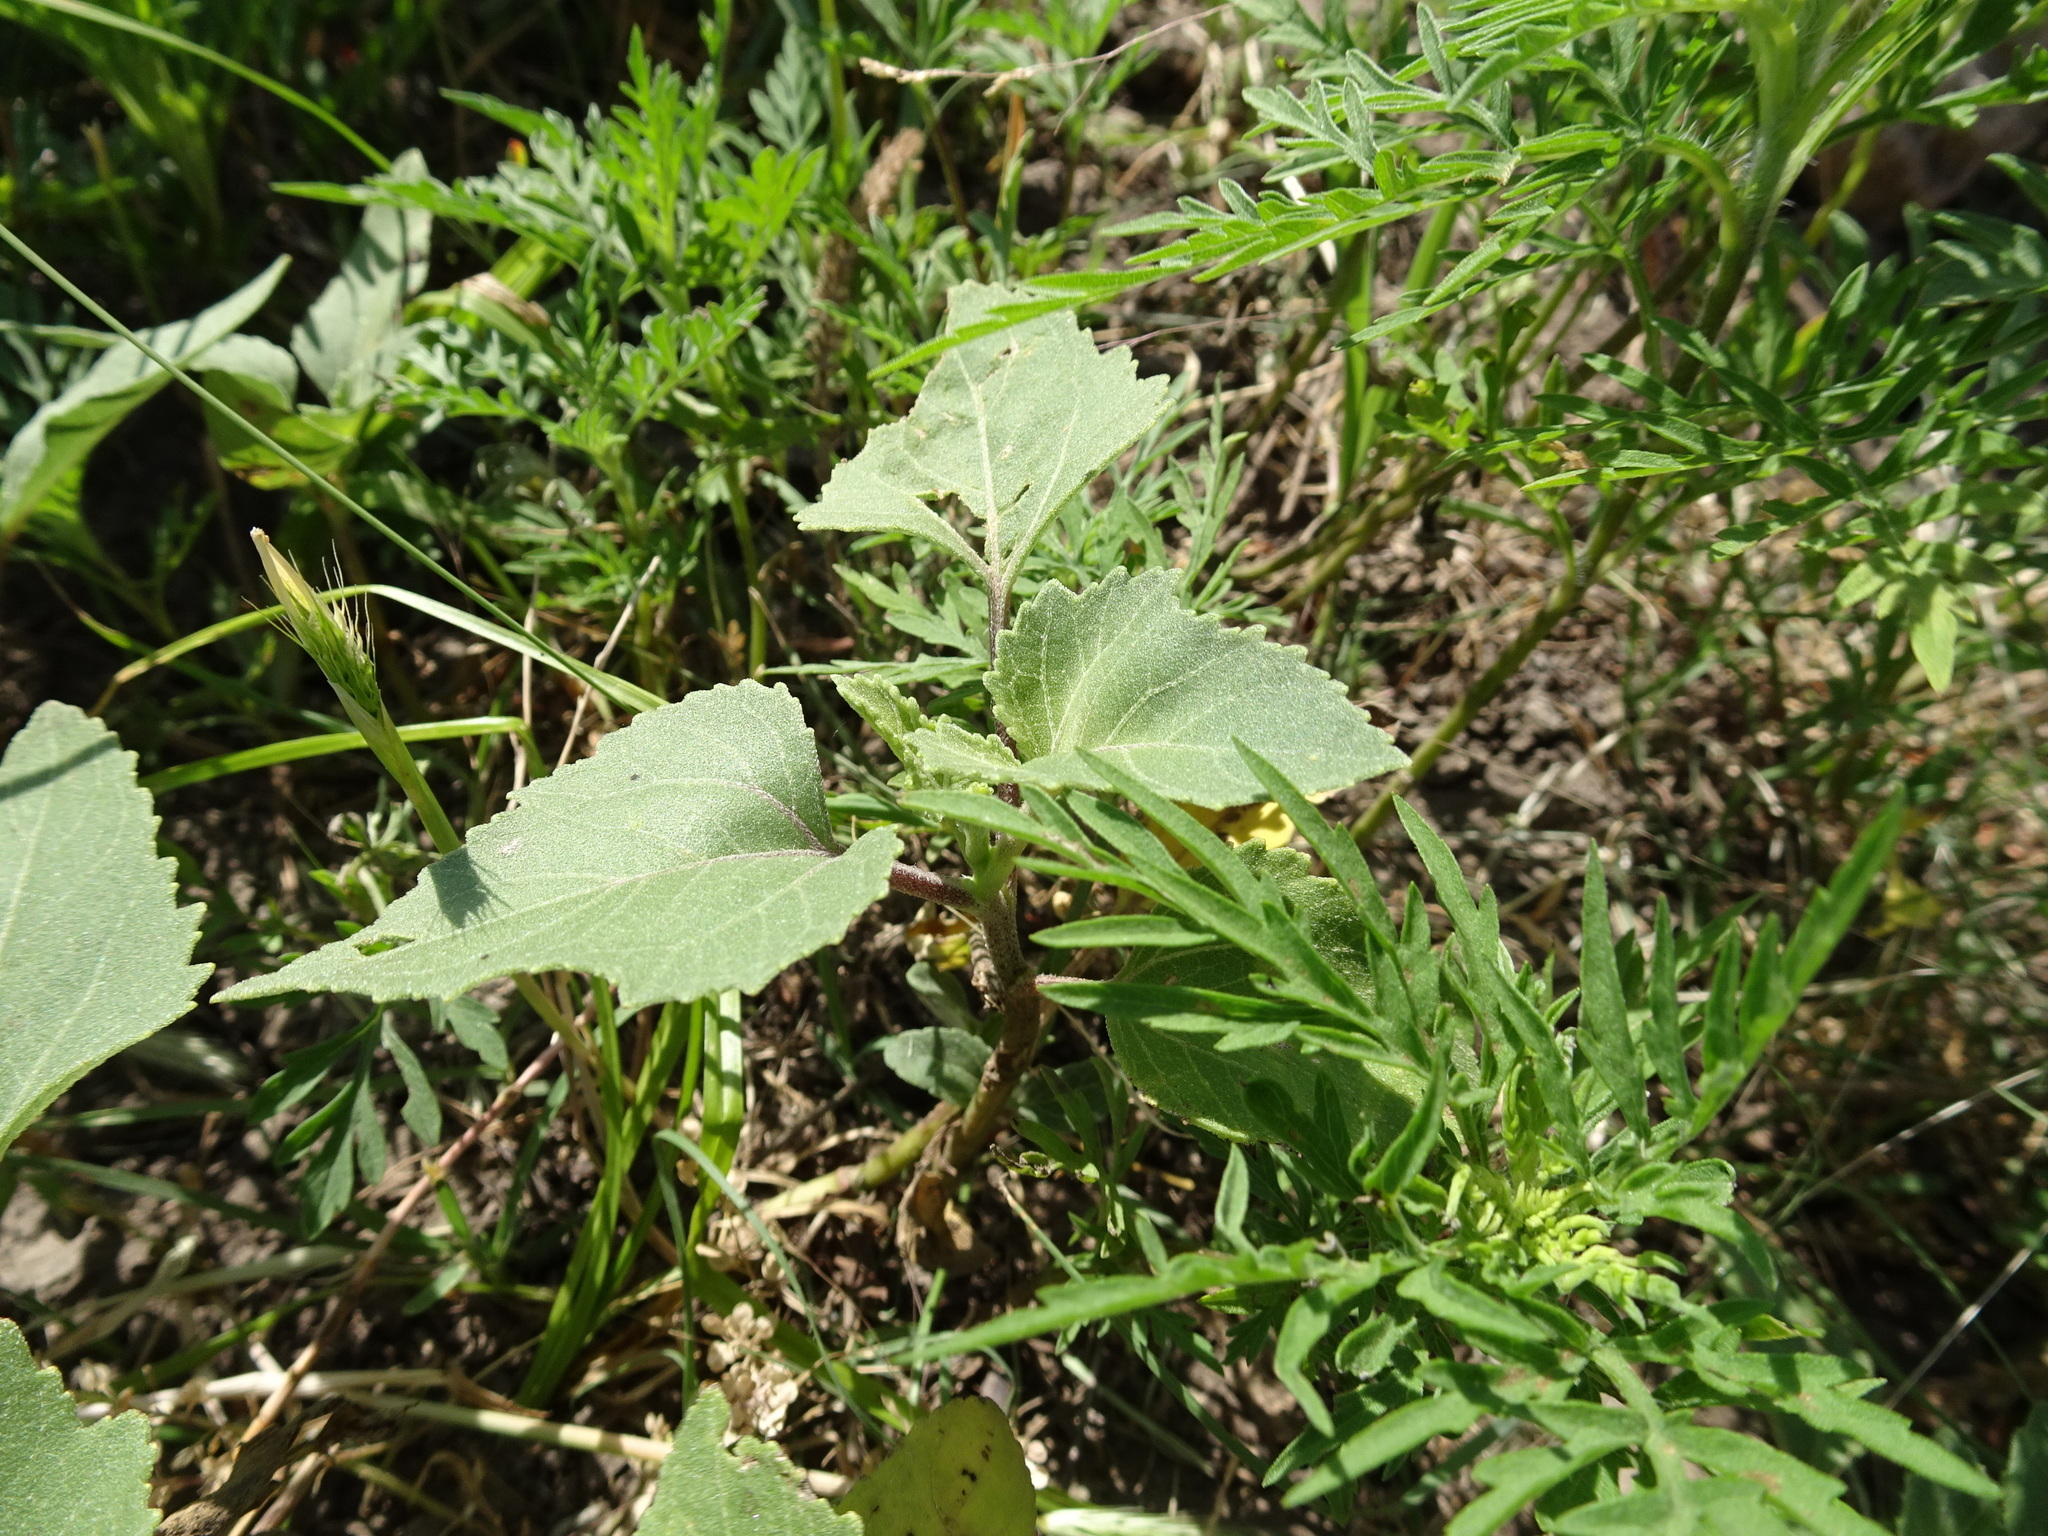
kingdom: Plantae
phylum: Tracheophyta
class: Magnoliopsida
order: Asterales
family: Asteraceae
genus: Xanthium
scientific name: Xanthium strumarium
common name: Rough cocklebur
